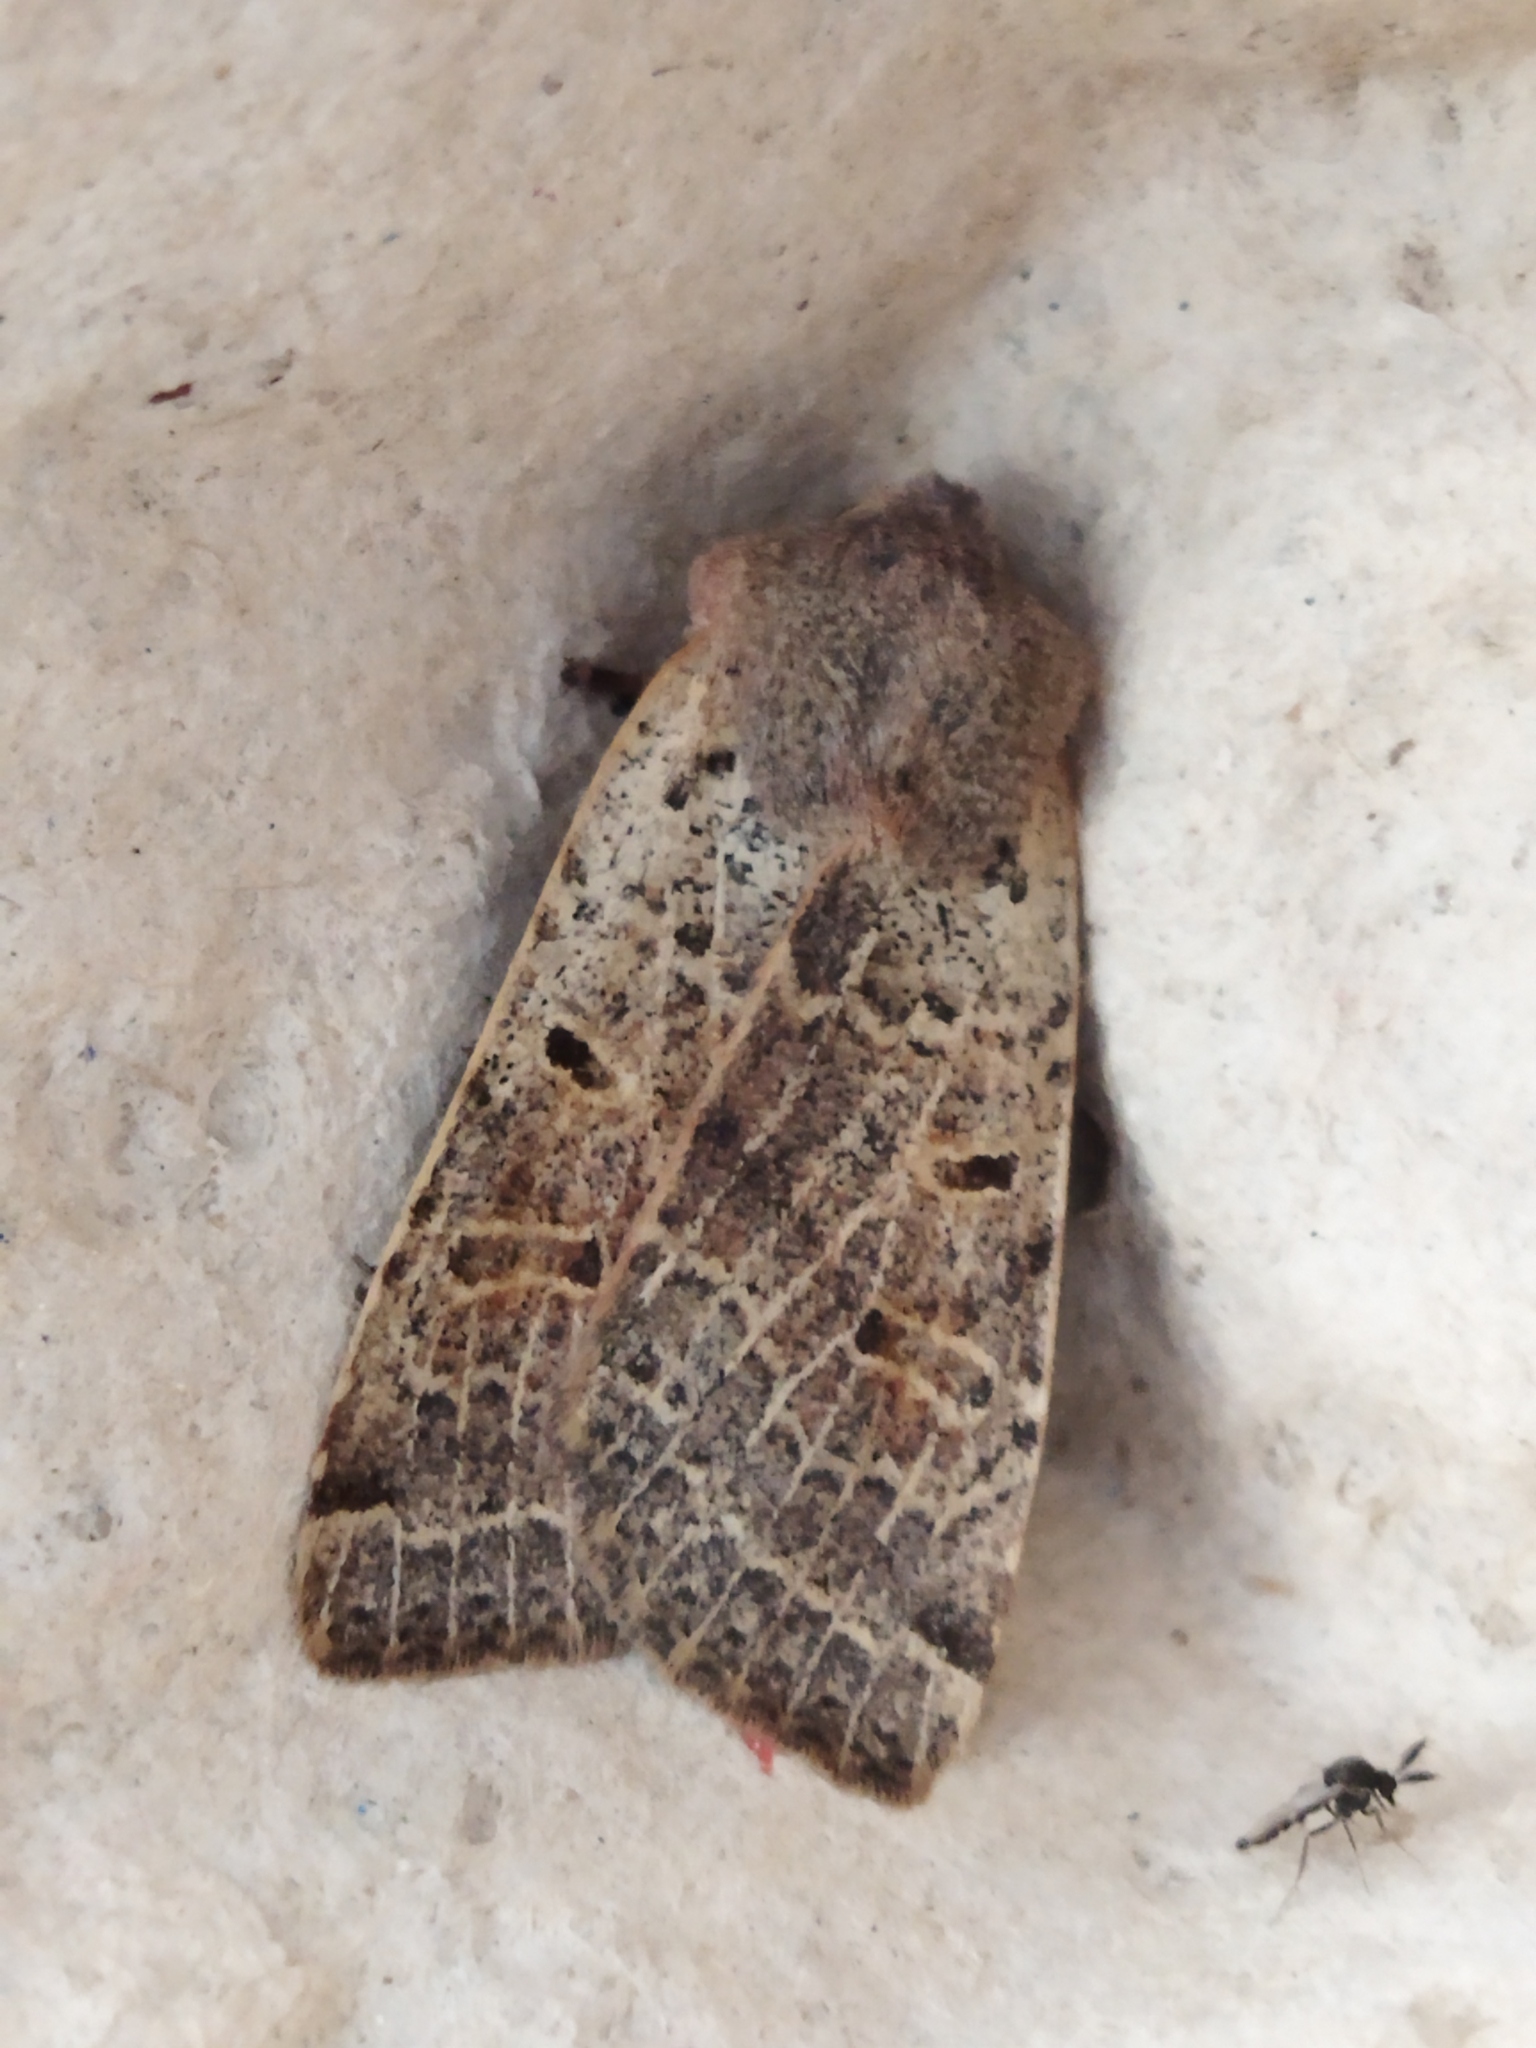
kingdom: Animalia
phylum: Arthropoda
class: Insecta
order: Lepidoptera
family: Noctuidae
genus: Agrochola
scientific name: Agrochola lychnidis
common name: Beaded chestnut
